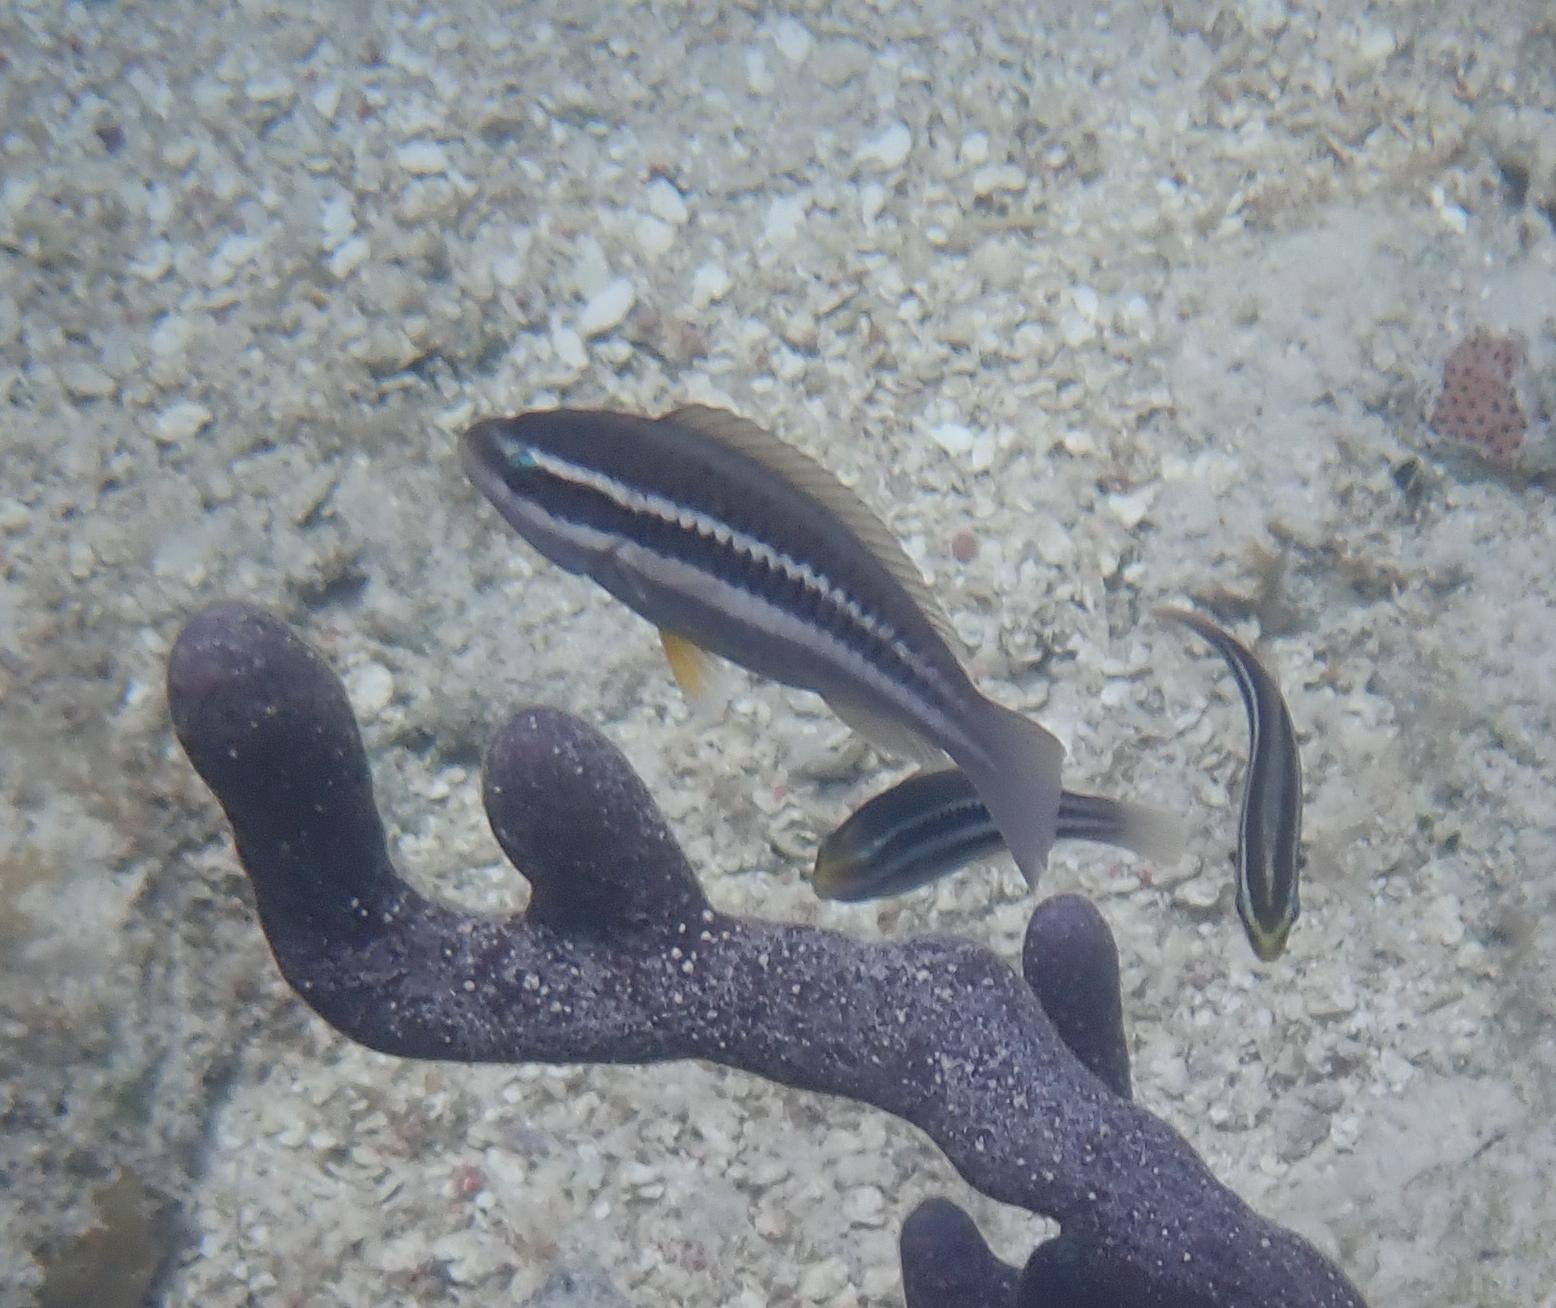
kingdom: Animalia
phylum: Chordata
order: Perciformes
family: Scaridae
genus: Scarus
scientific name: Scarus iseri
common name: Striped parrotfish
